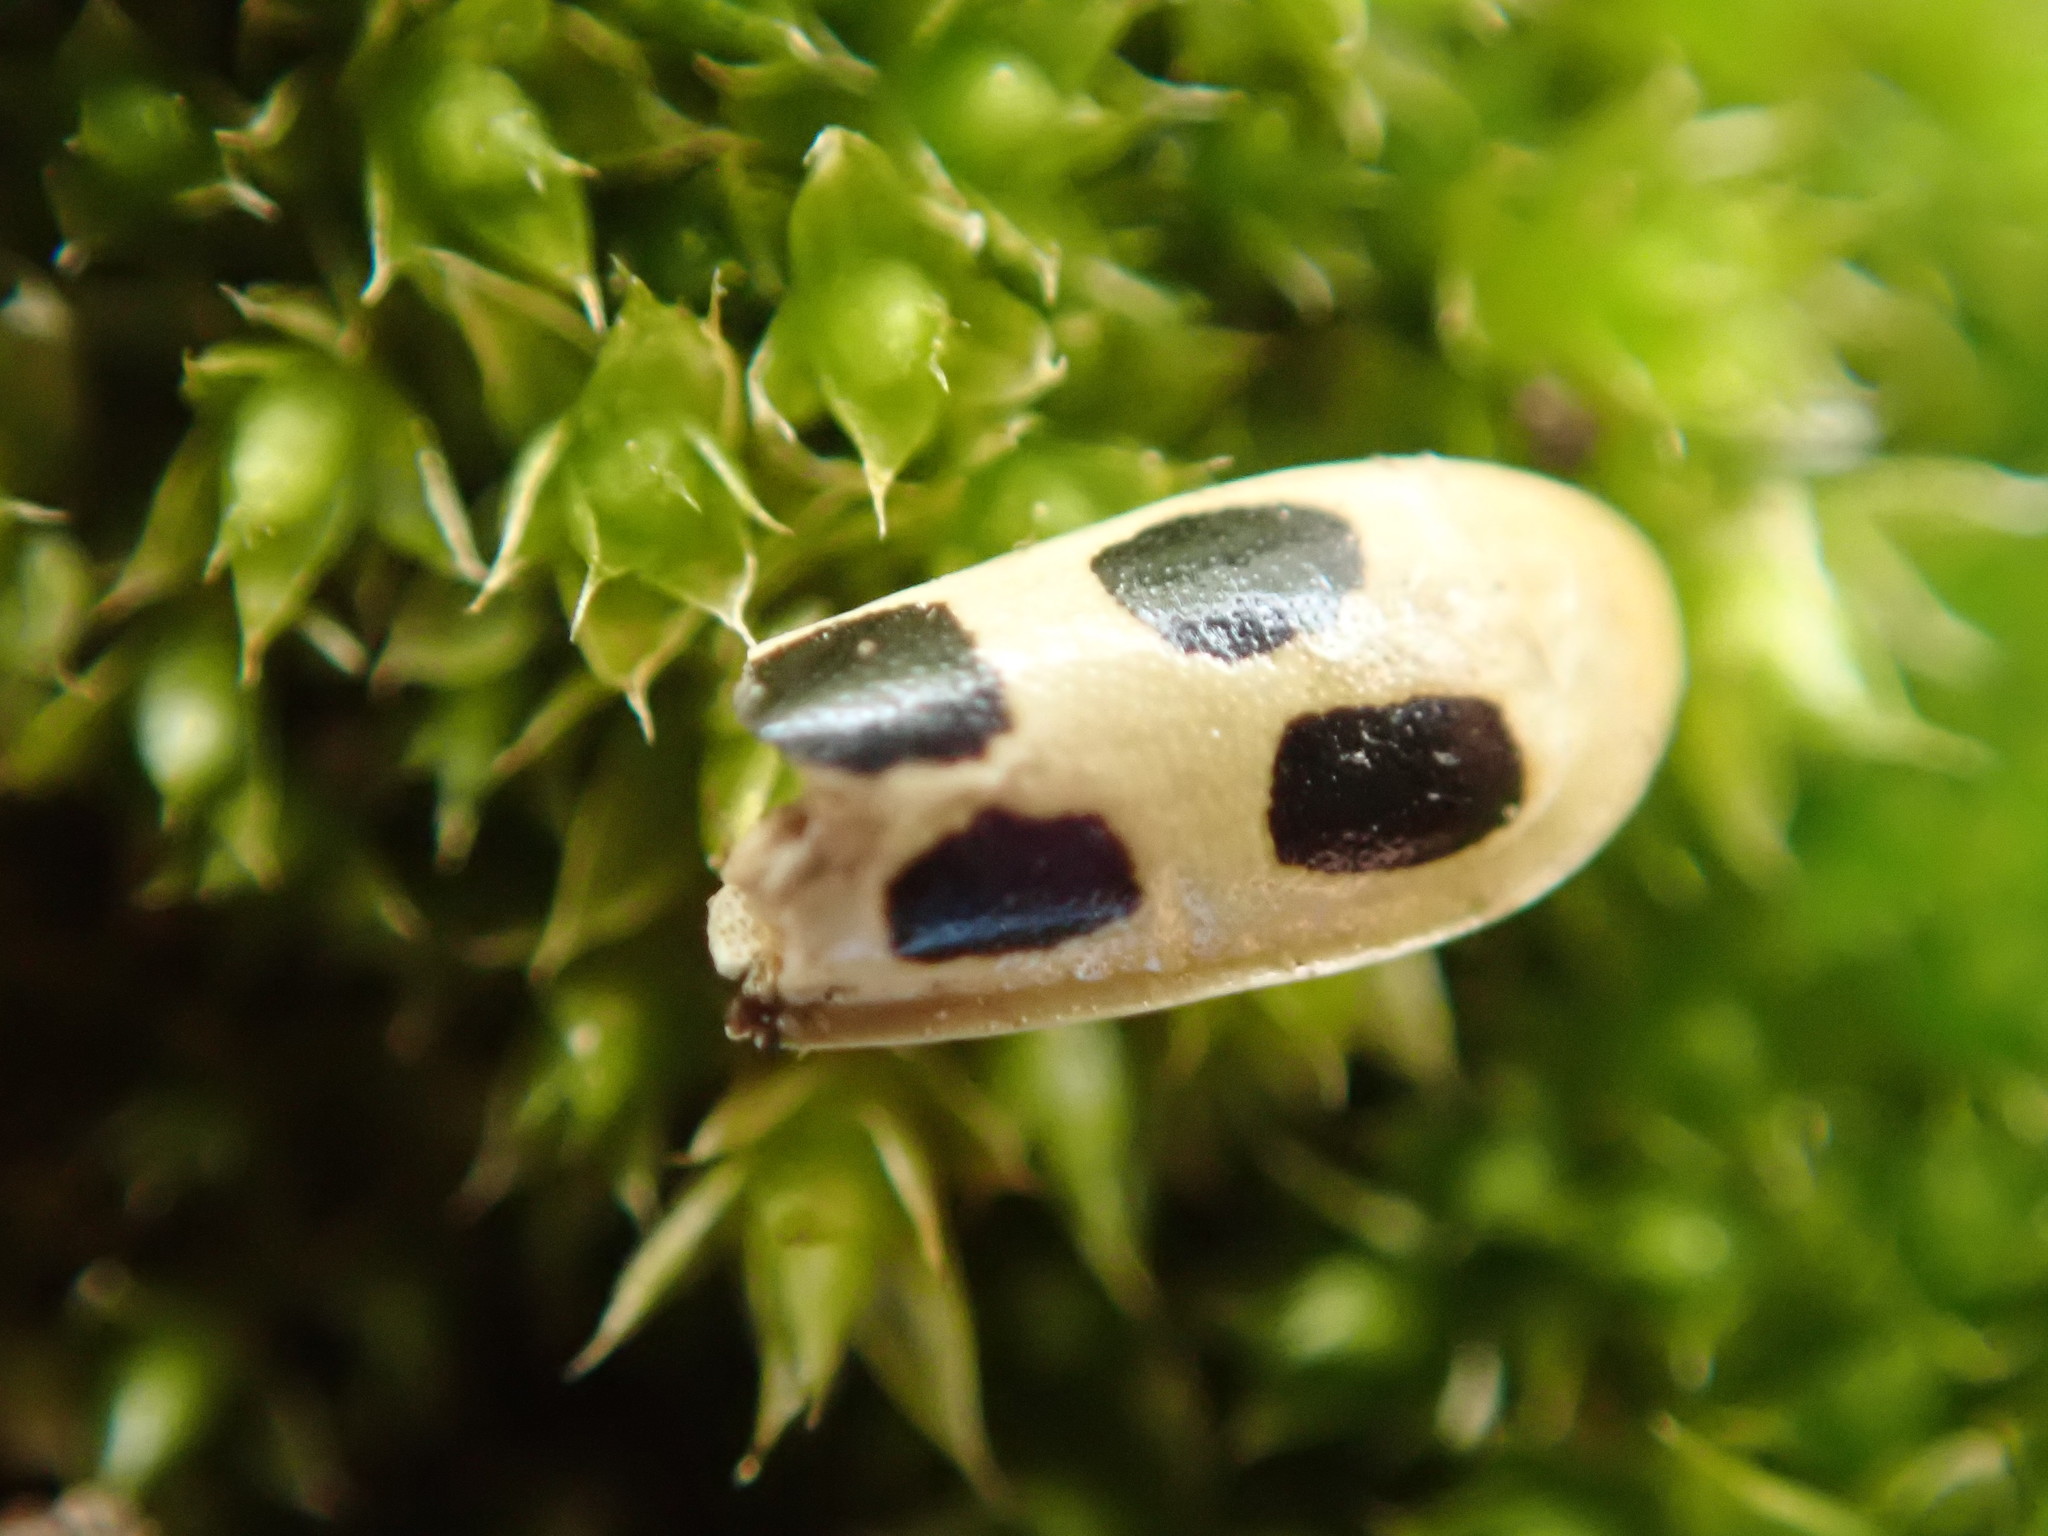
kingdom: Animalia
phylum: Arthropoda
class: Insecta
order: Coleoptera
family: Chrysomelidae
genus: Diabrotica
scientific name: Diabrotica undecimpunctata
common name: Spotted cucumber beetle
